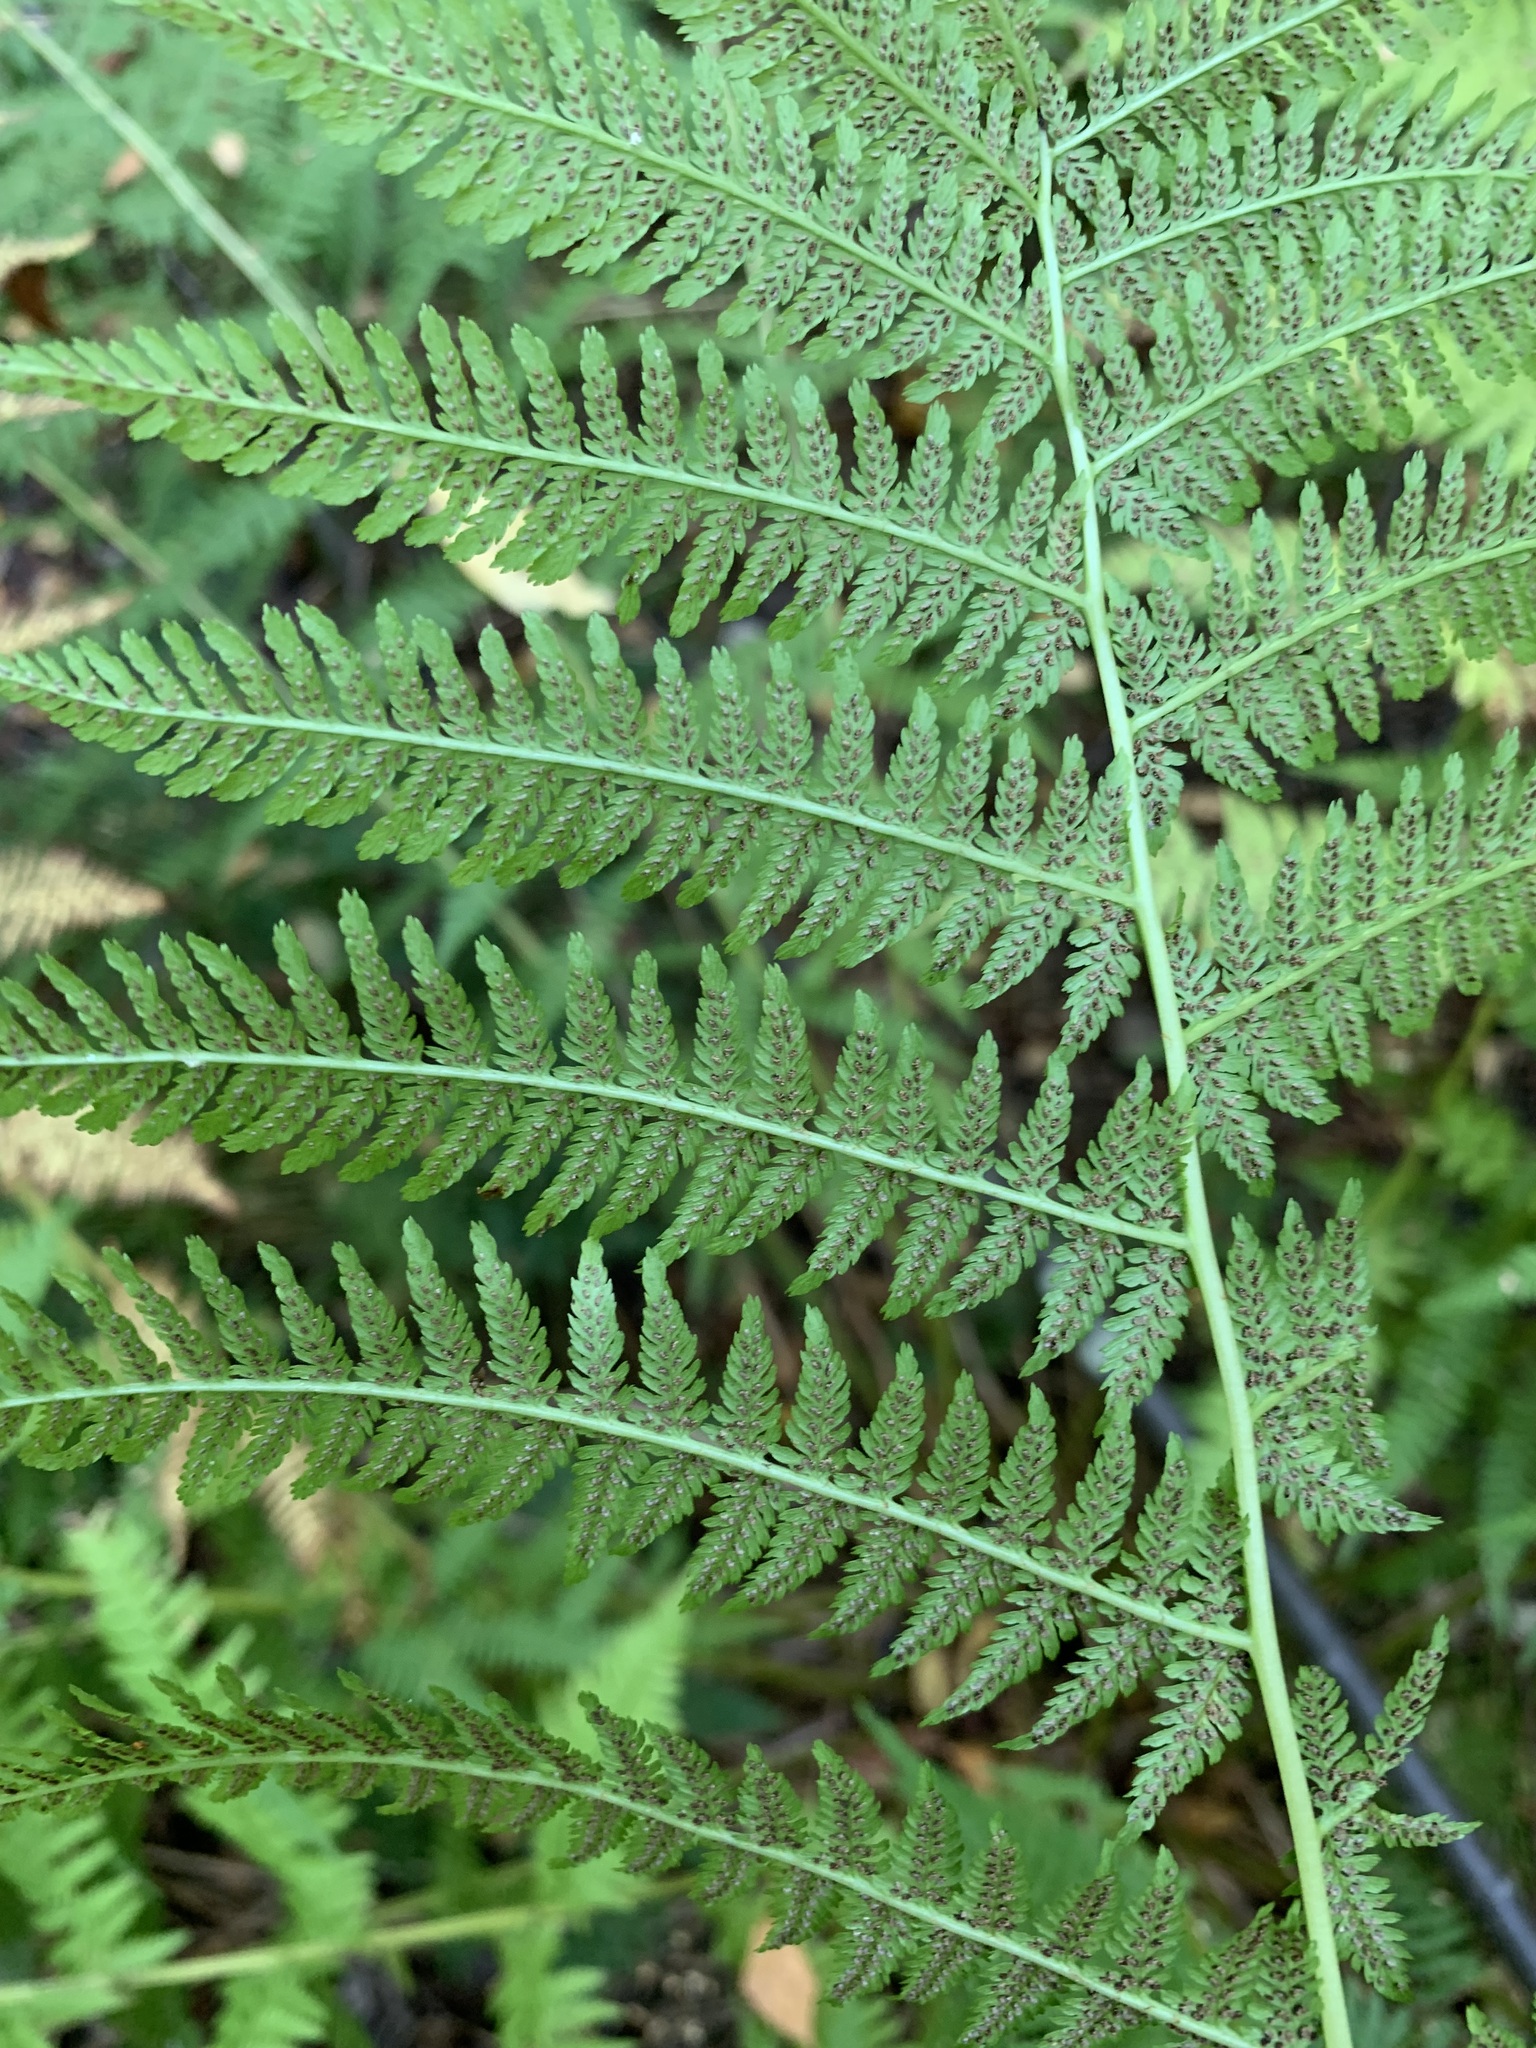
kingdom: Plantae
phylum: Tracheophyta
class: Polypodiopsida
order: Polypodiales
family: Athyriaceae
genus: Athyrium
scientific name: Athyrium filix-femina
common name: Lady fern
